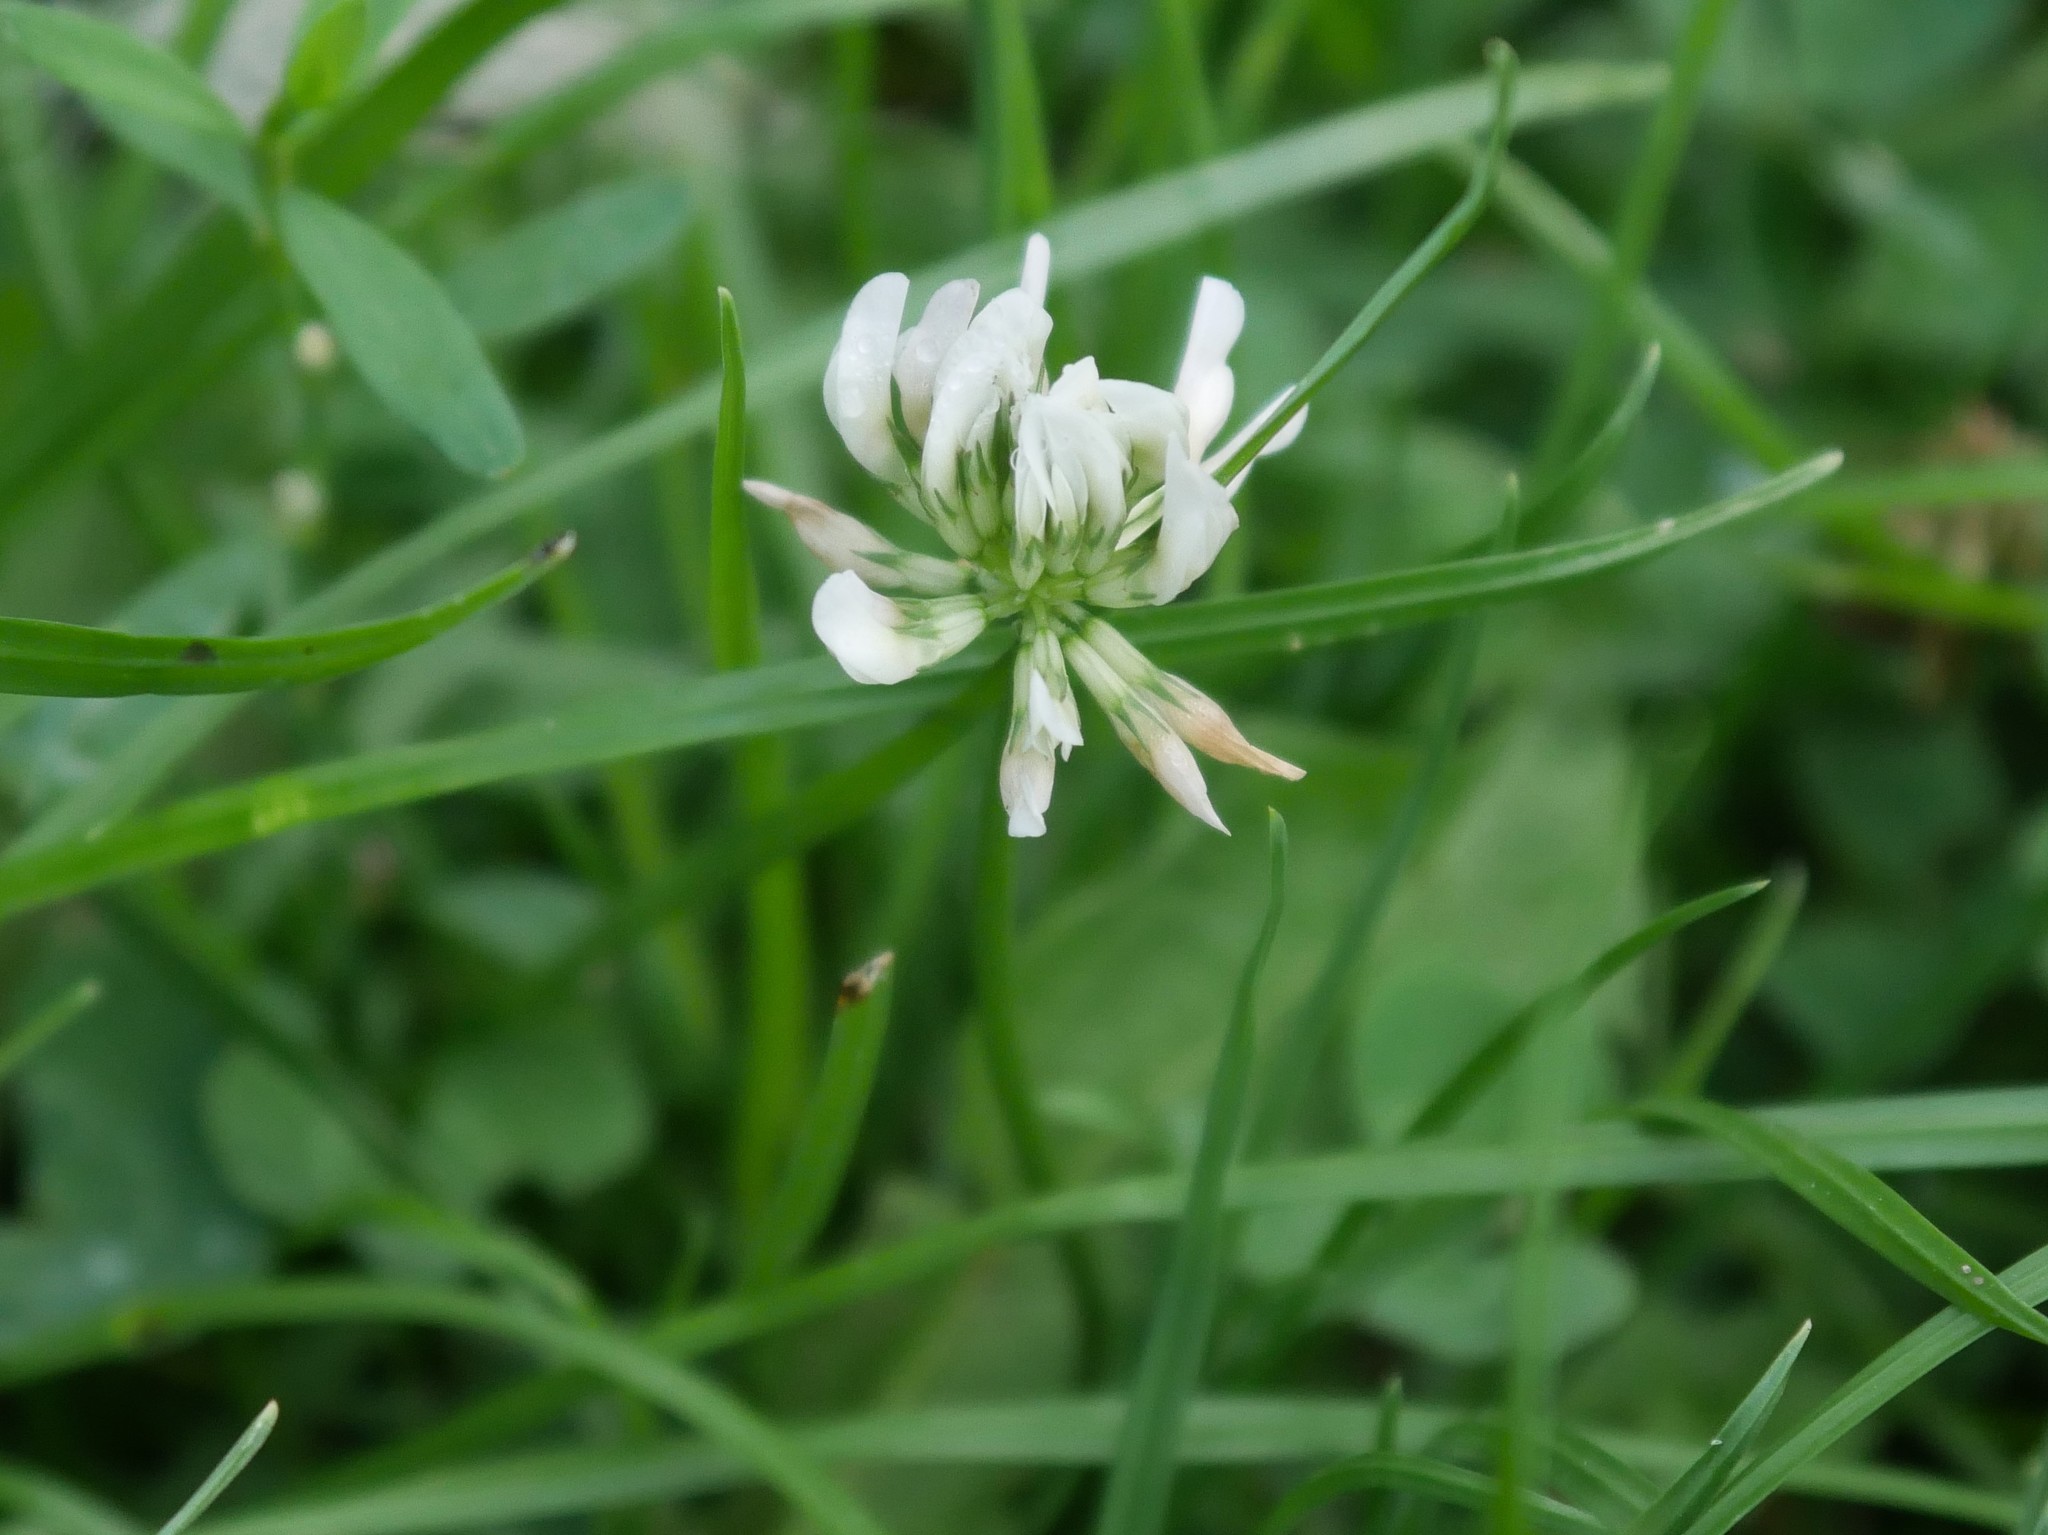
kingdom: Plantae
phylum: Tracheophyta
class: Magnoliopsida
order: Fabales
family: Fabaceae
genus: Trifolium
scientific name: Trifolium repens
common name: White clover
